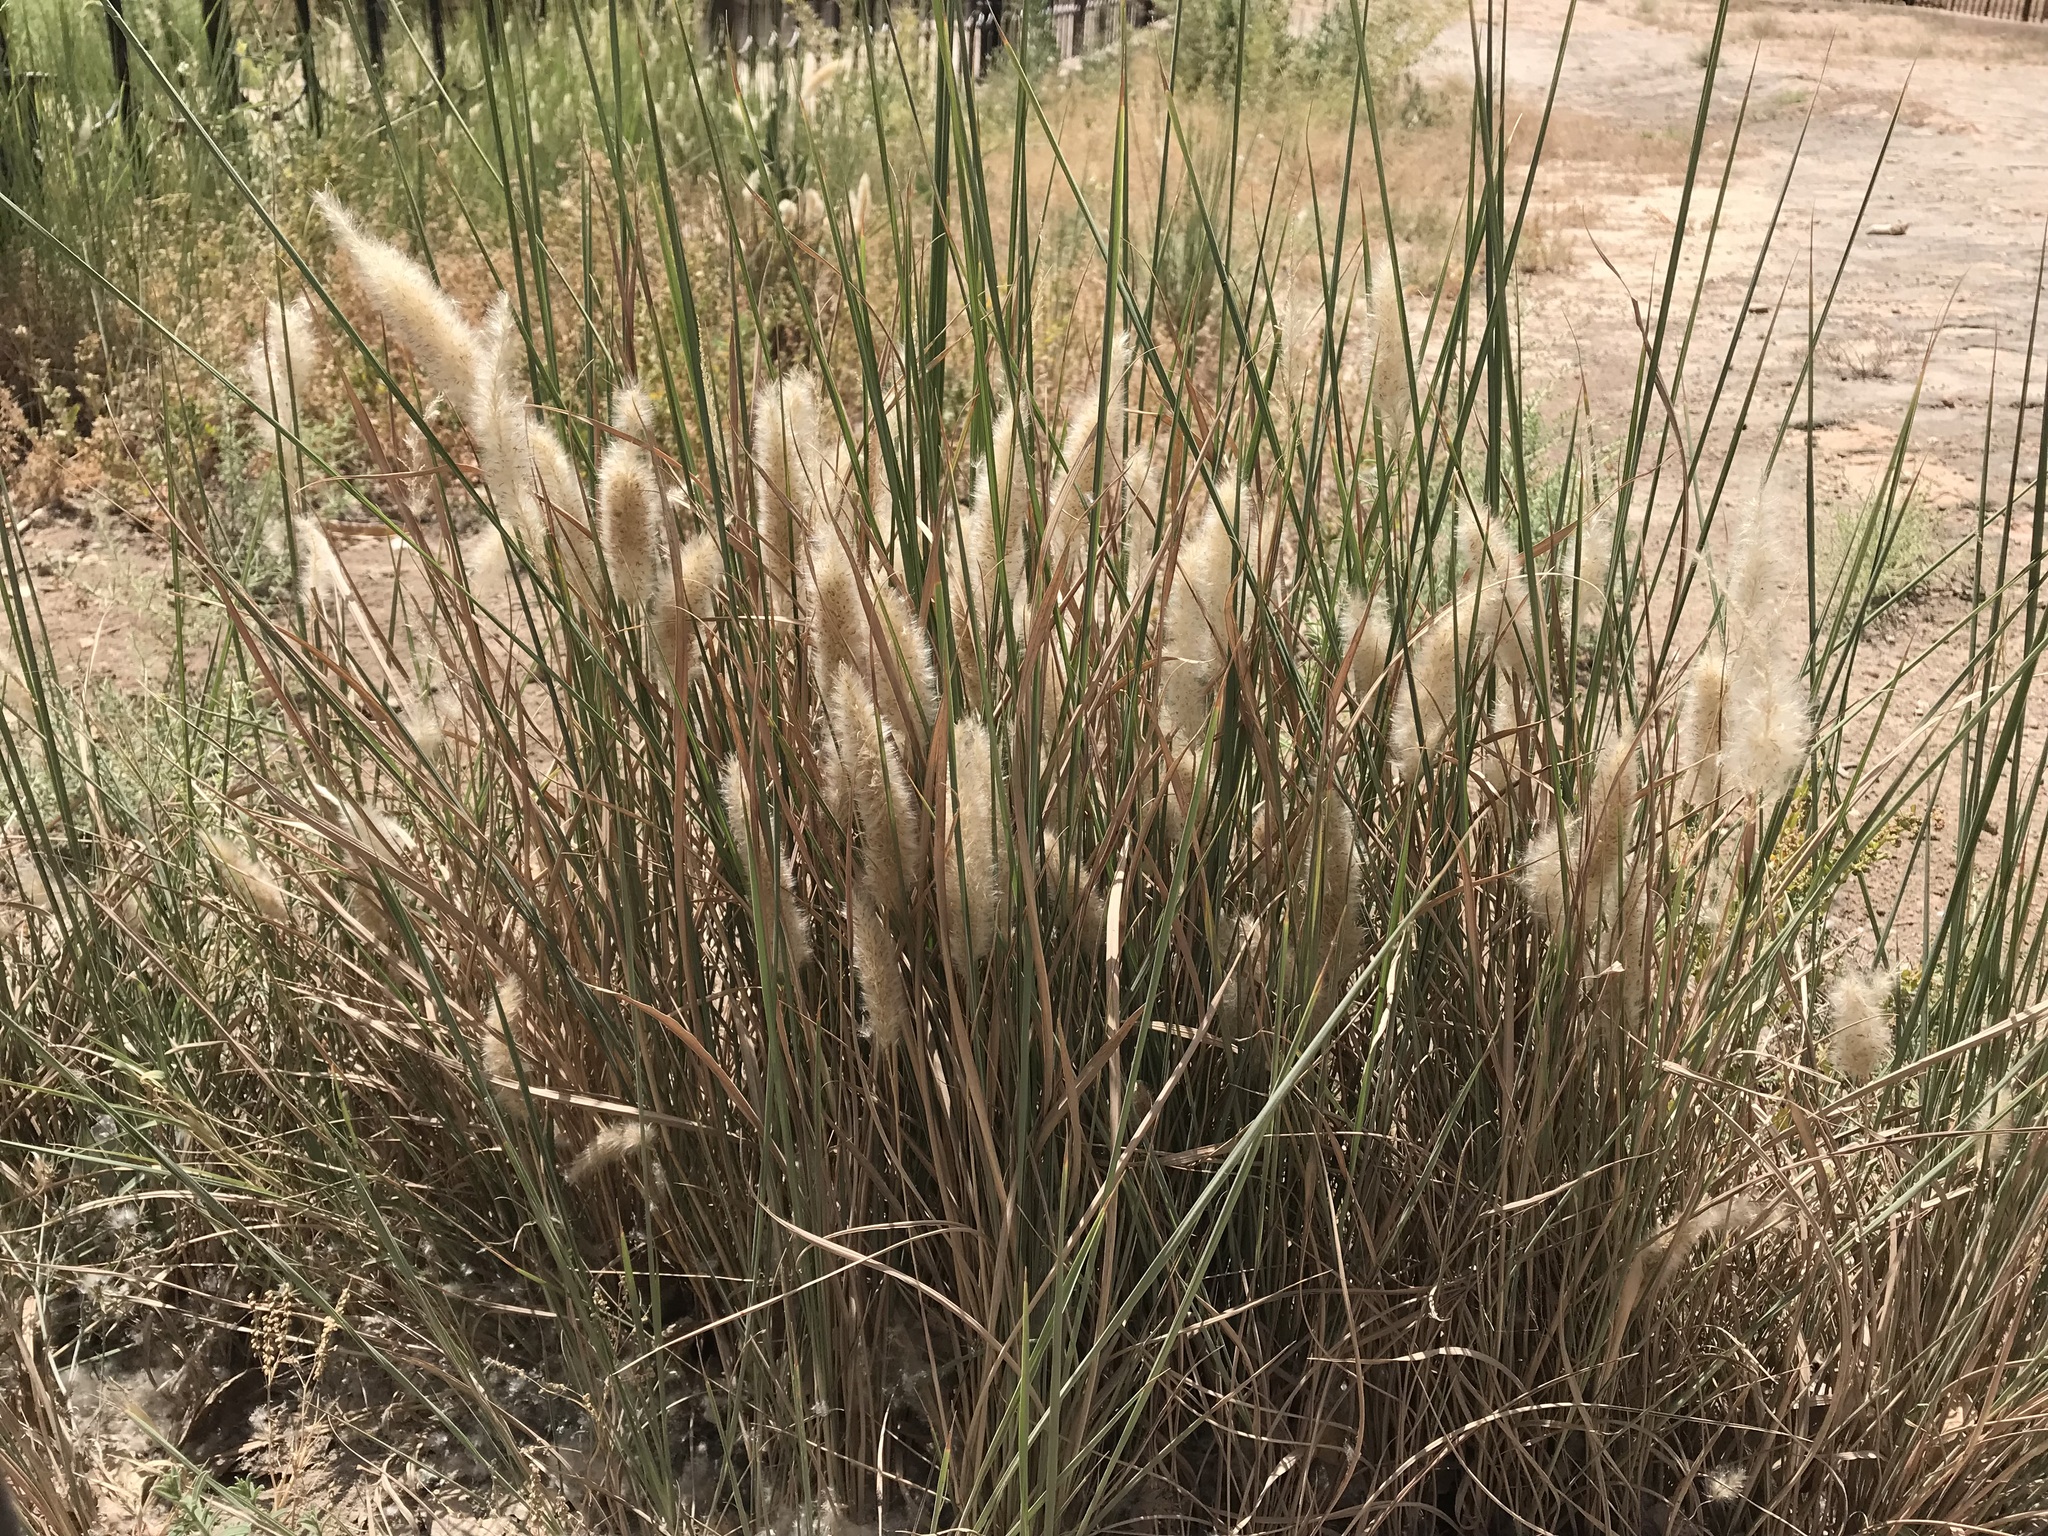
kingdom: Plantae
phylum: Tracheophyta
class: Liliopsida
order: Poales
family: Poaceae
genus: Imperata
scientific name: Imperata cylindrica
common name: Cogongrass
